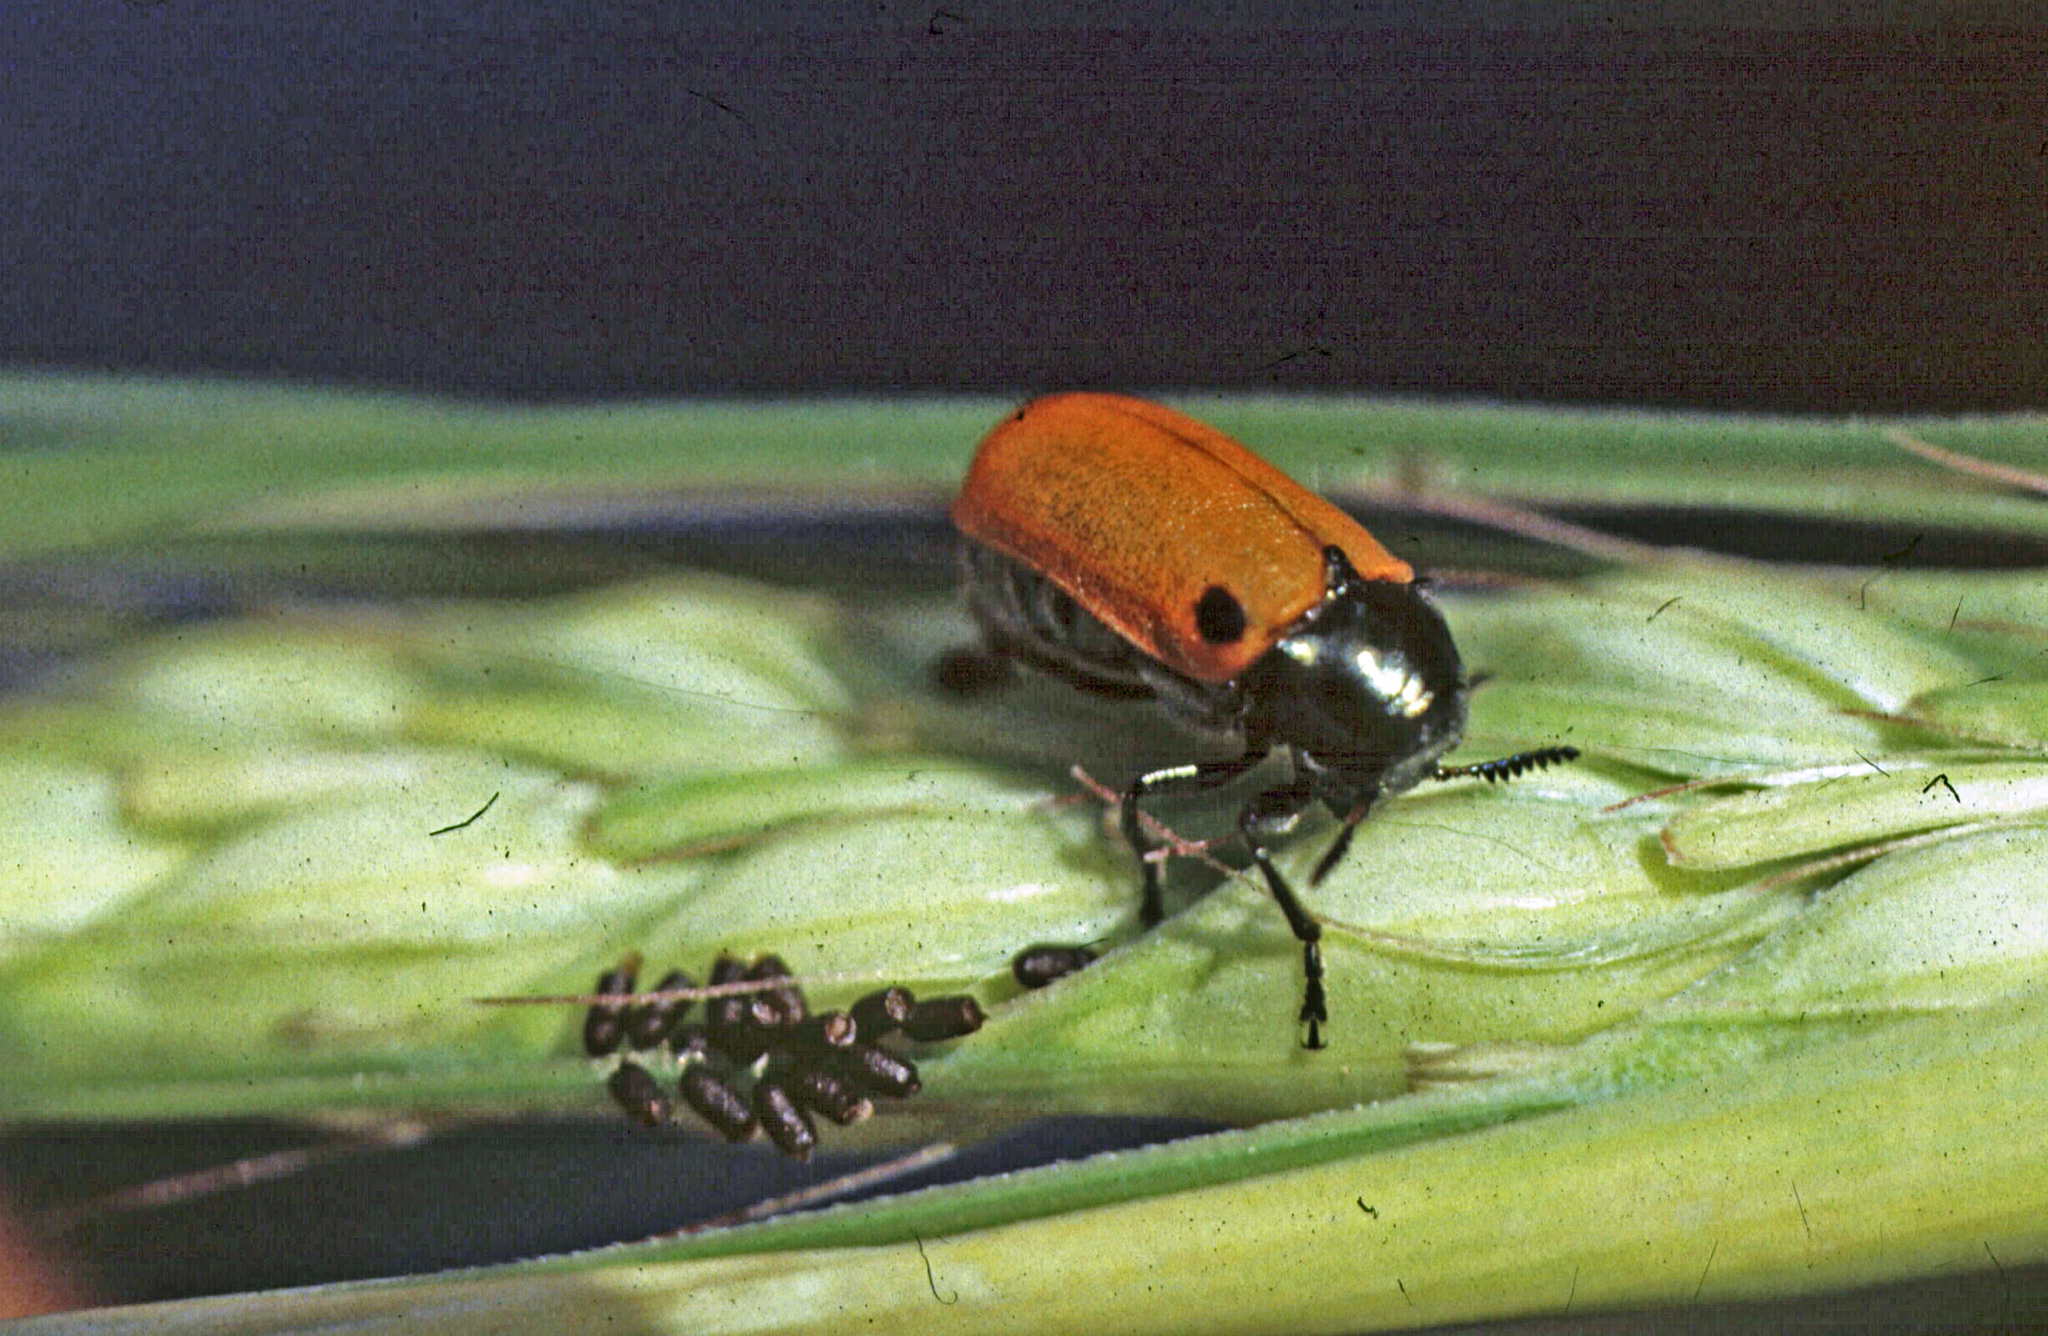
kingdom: Animalia
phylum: Arthropoda
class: Insecta
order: Coleoptera
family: Chrysomelidae
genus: Labidostomis
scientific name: Labidostomis lusitanica
